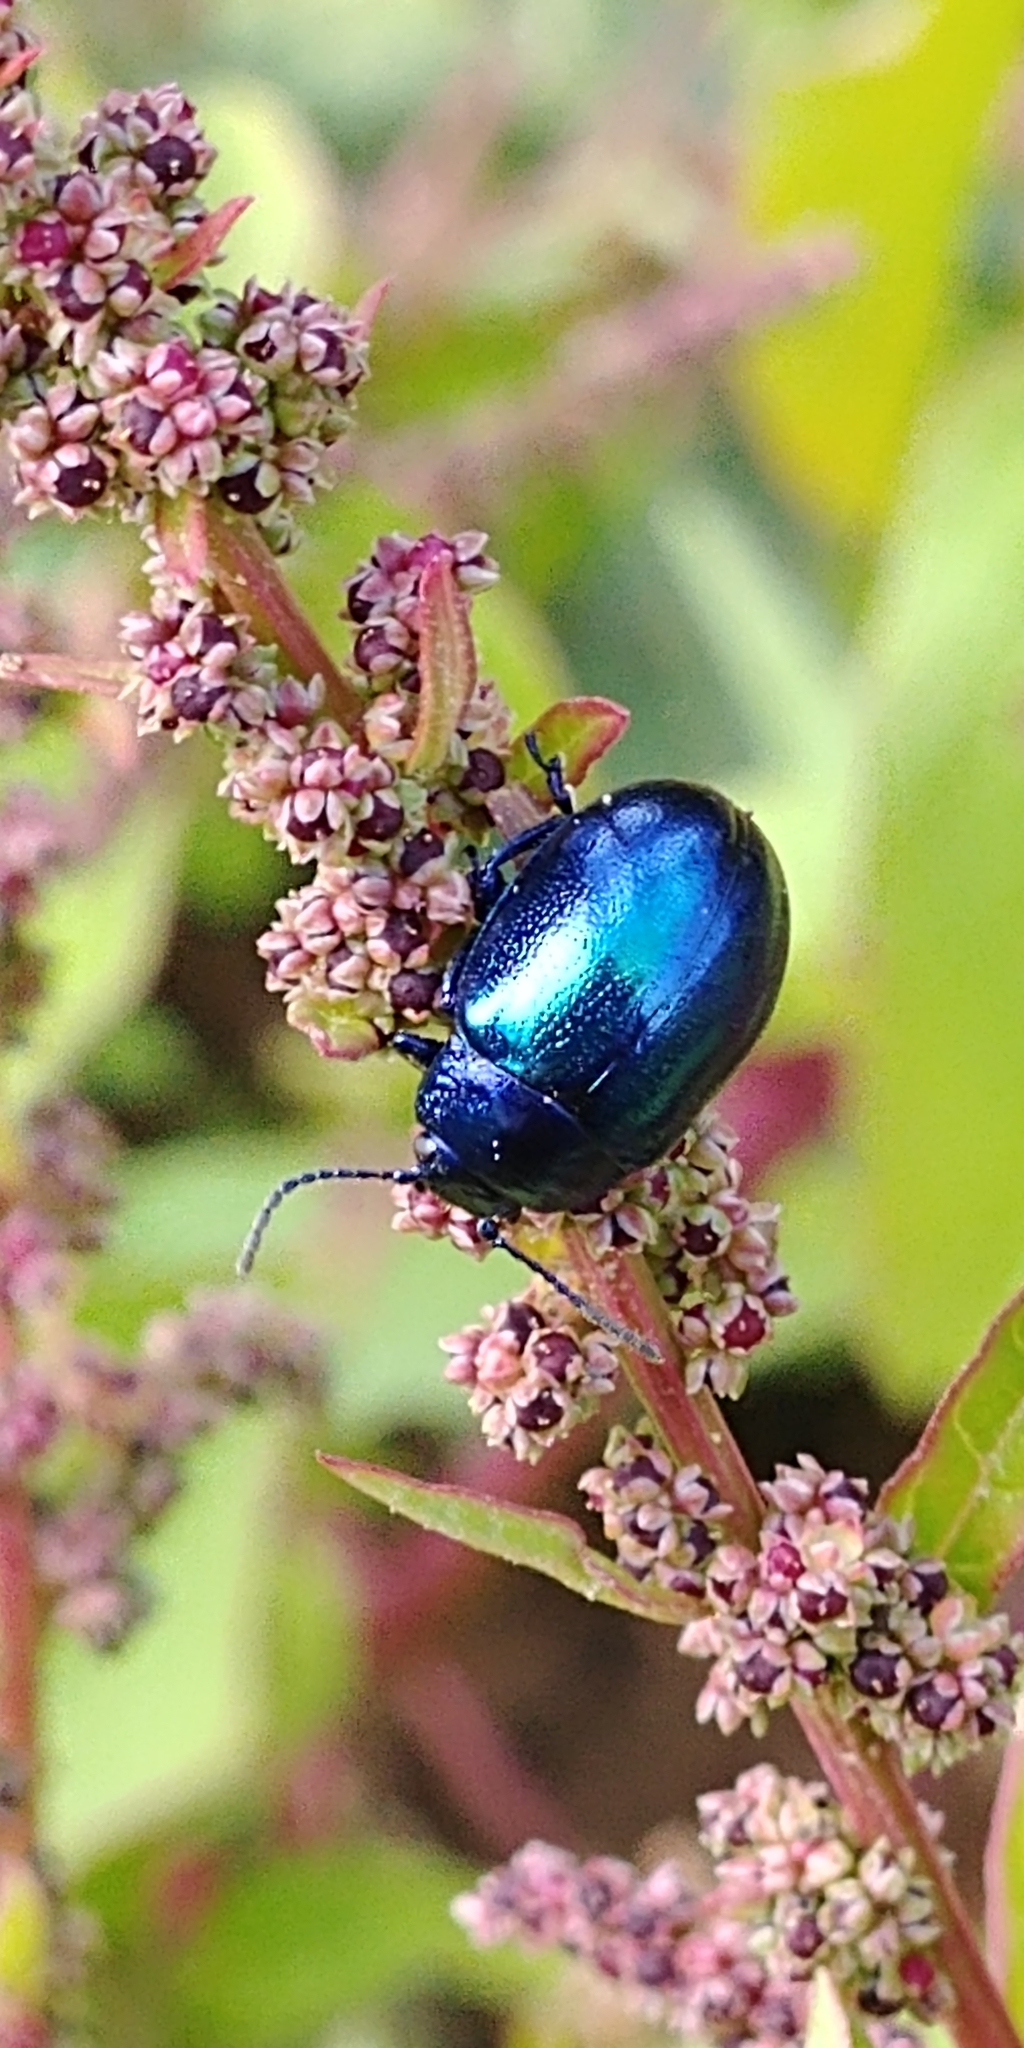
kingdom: Animalia
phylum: Arthropoda
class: Insecta
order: Coleoptera
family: Chrysomelidae
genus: Chrysolina
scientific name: Chrysolina coerulans
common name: Blue mint beetle
